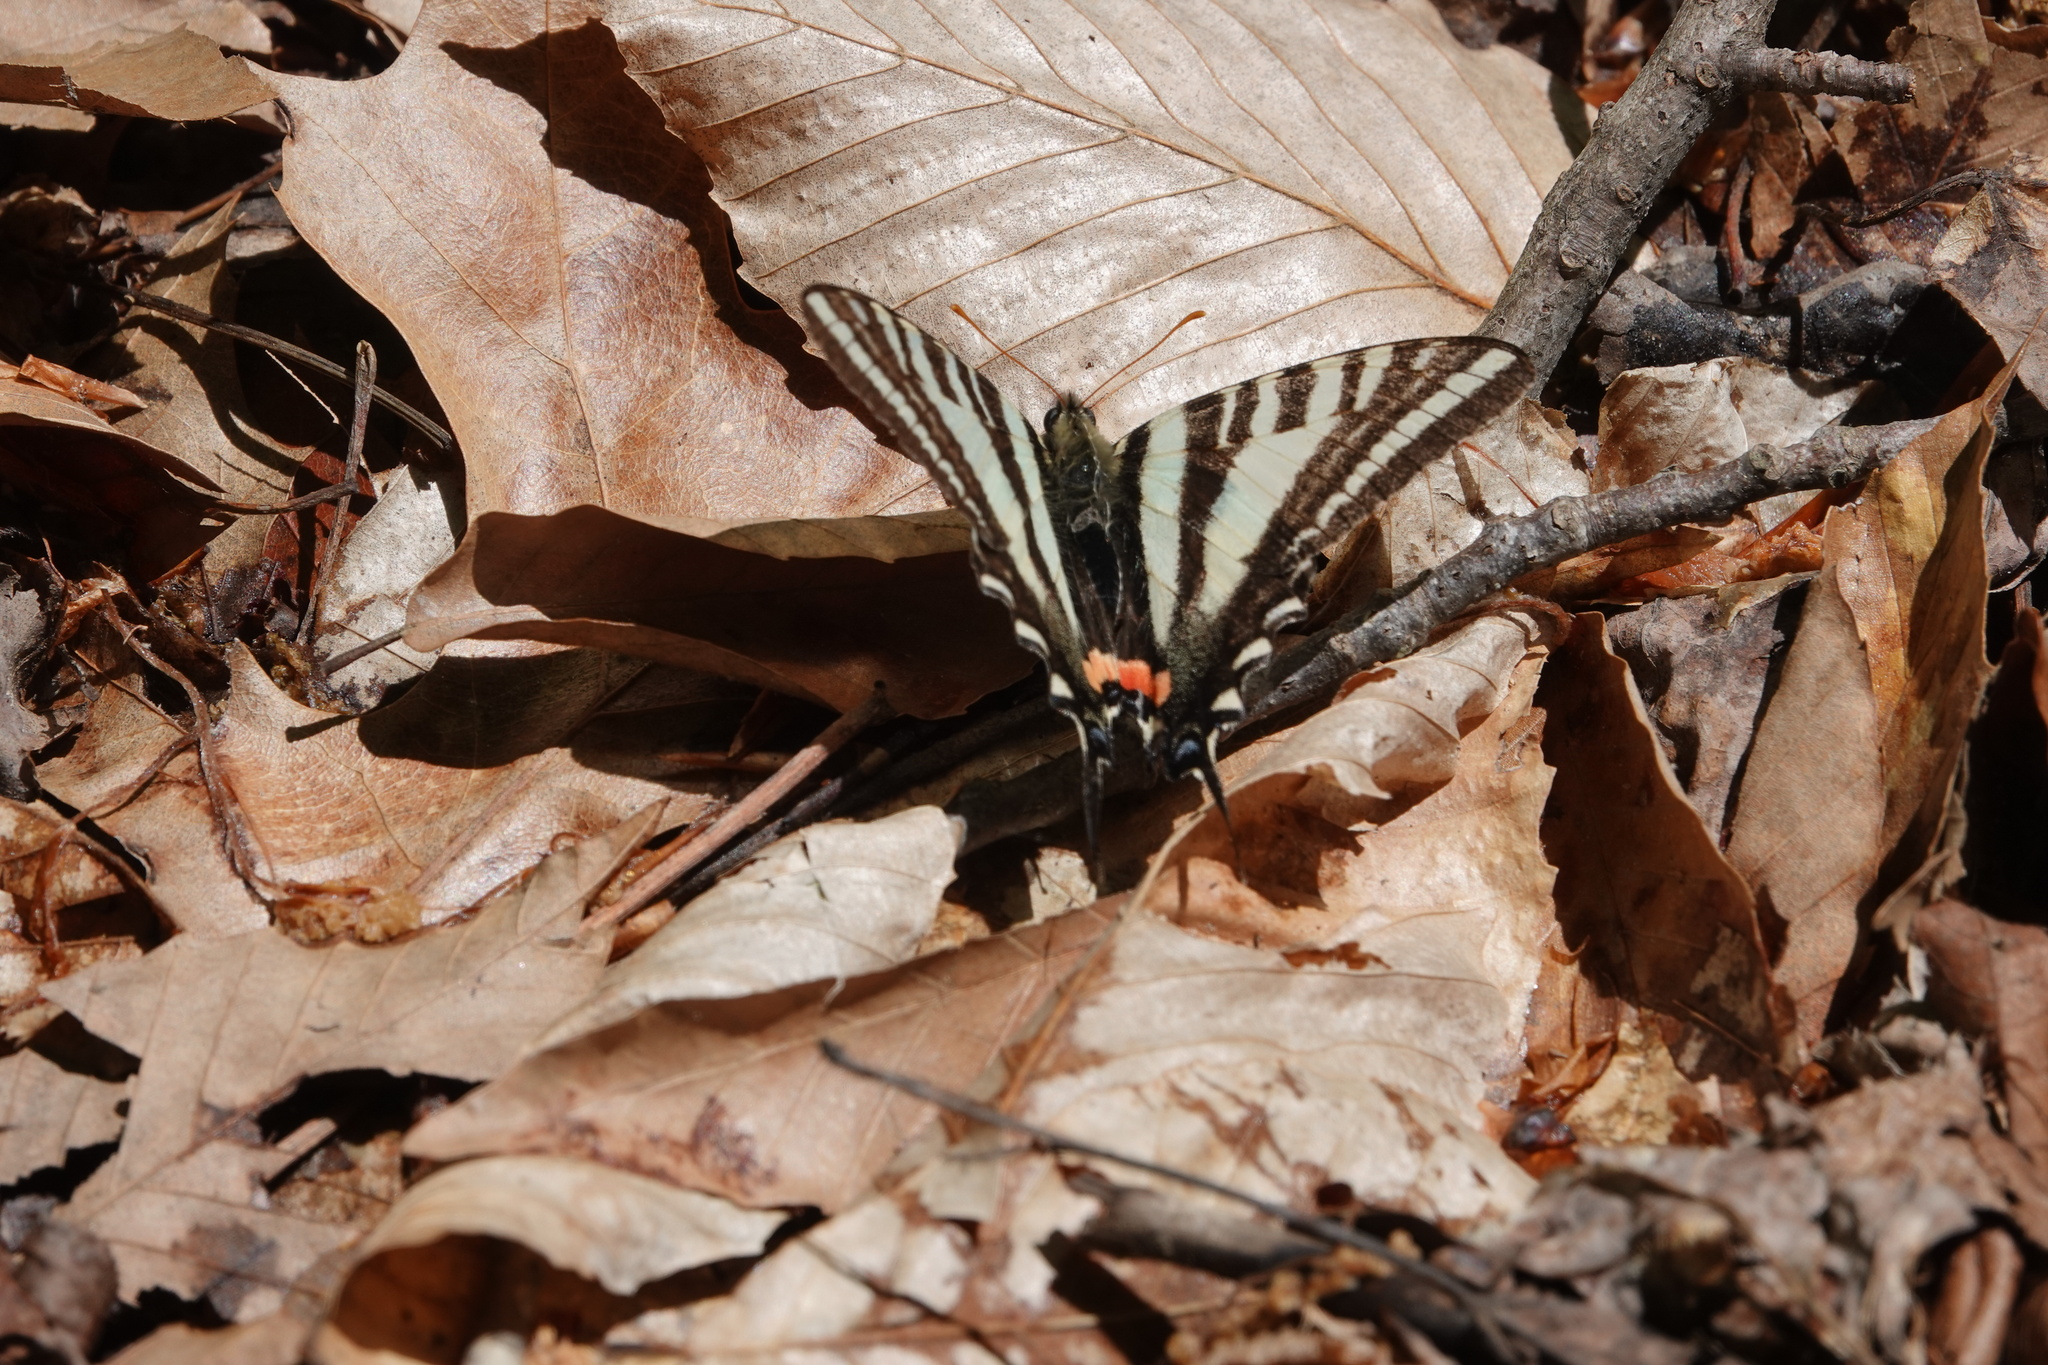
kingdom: Animalia
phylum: Arthropoda
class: Insecta
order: Lepidoptera
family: Papilionidae
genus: Protographium
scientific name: Protographium marcellus
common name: Zebra swallowtail
